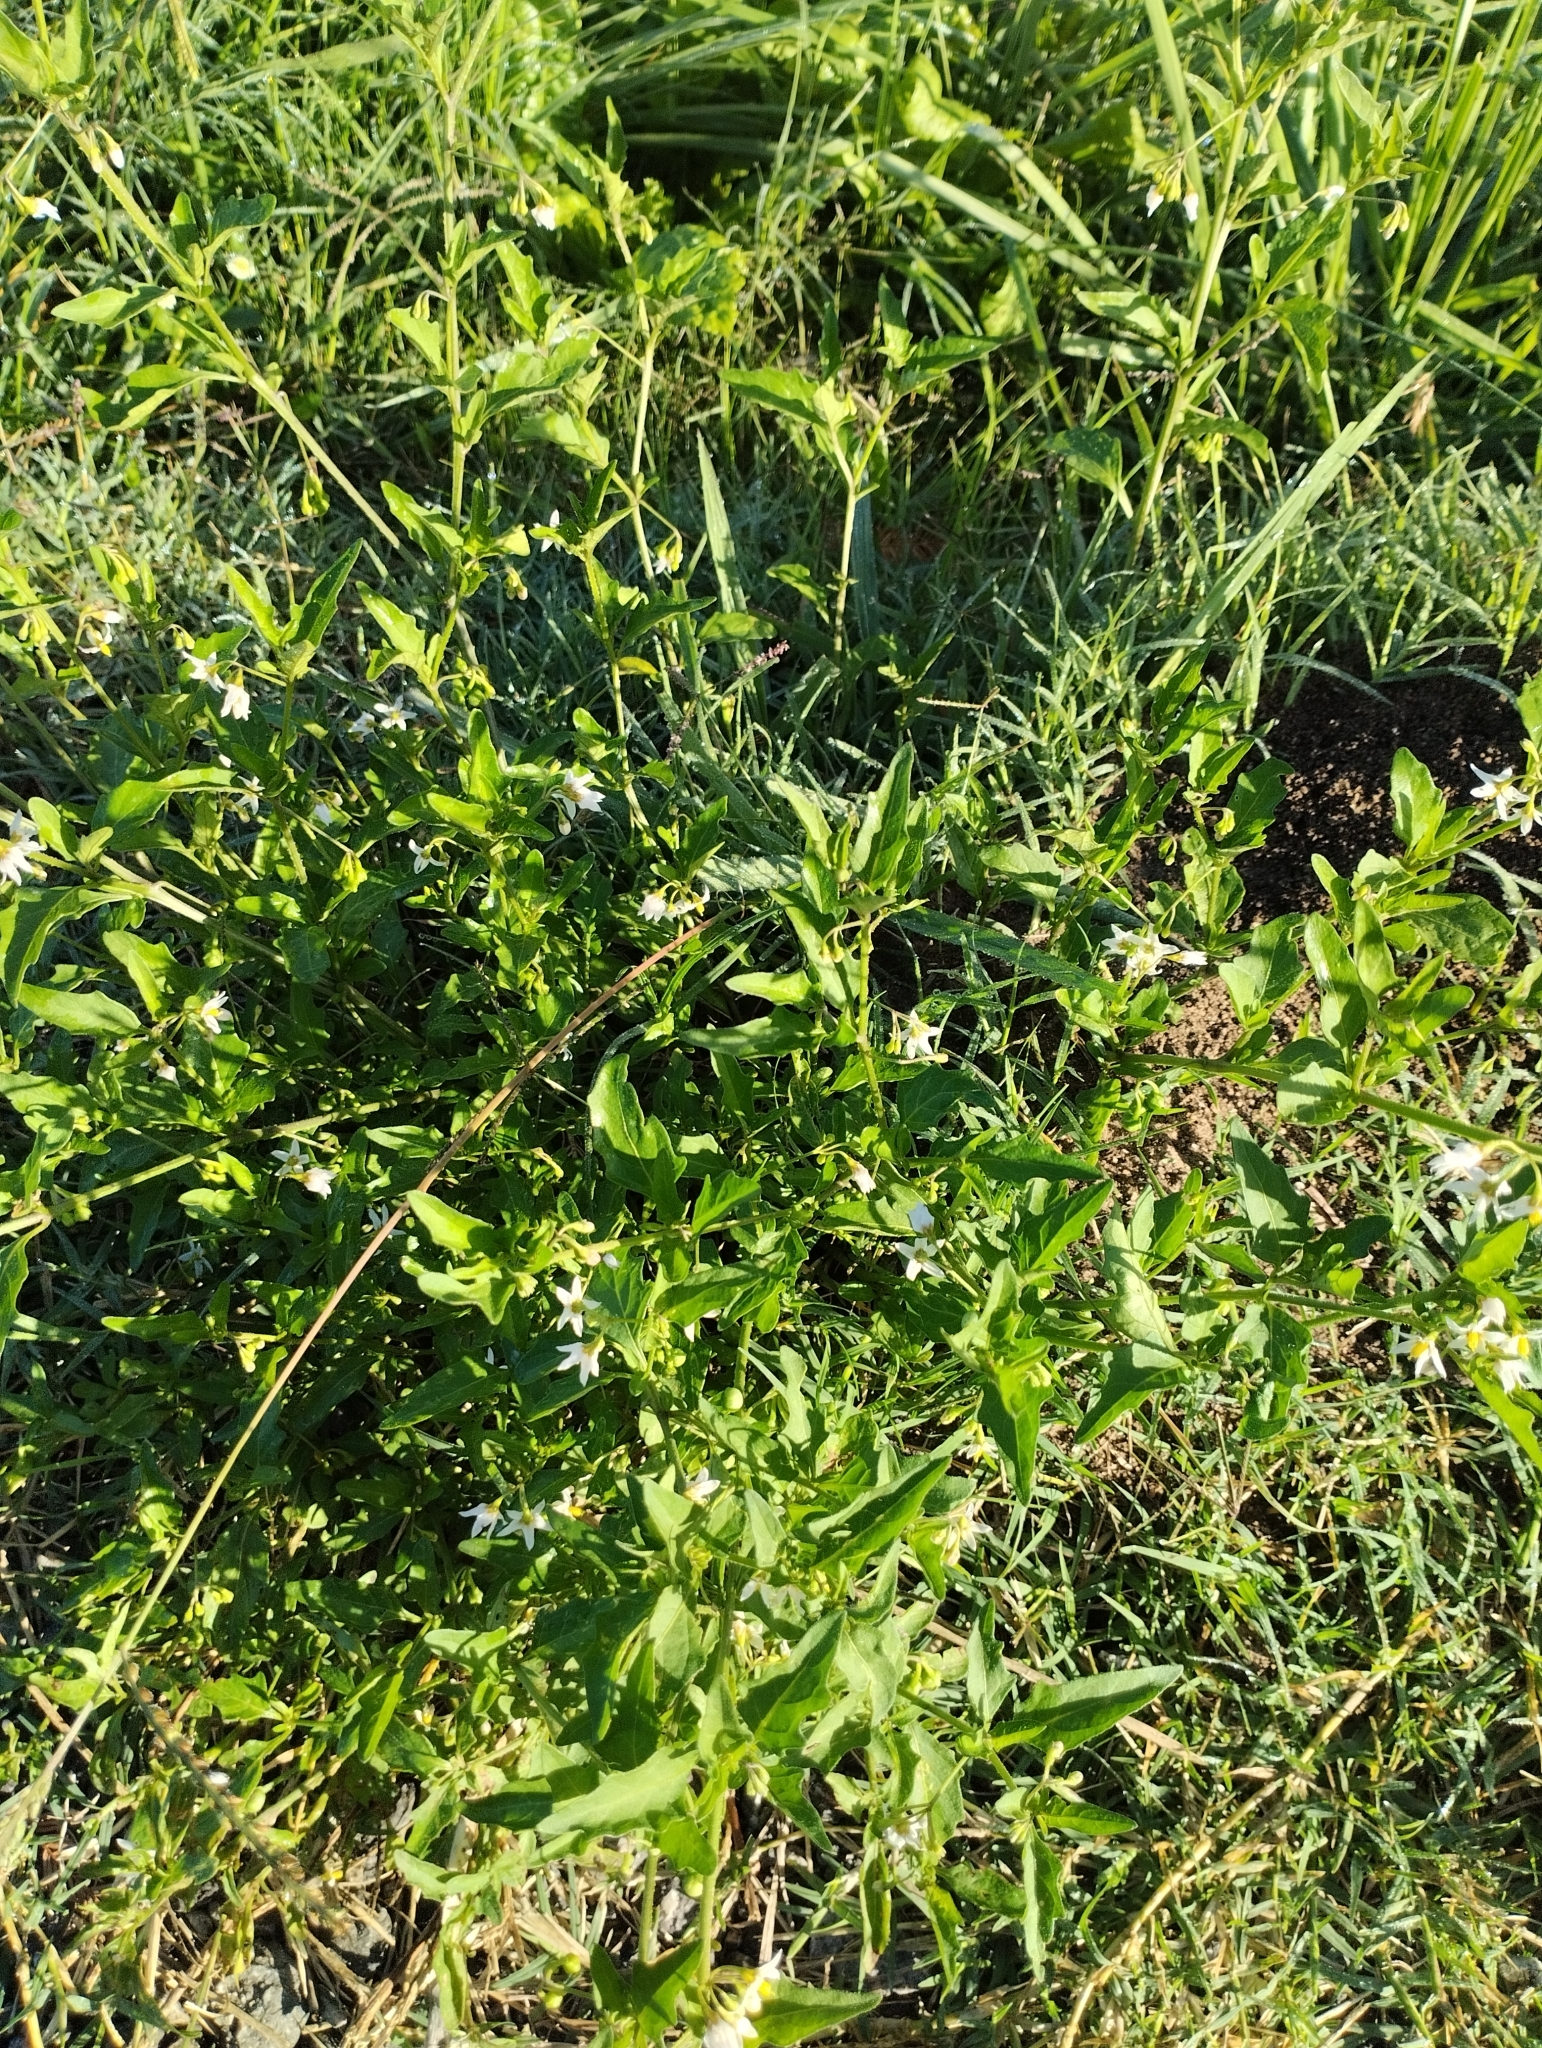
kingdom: Plantae
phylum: Tracheophyta
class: Magnoliopsida
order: Solanales
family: Solanaceae
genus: Solanum
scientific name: Solanum chenopodioides
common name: Tall nightshade
